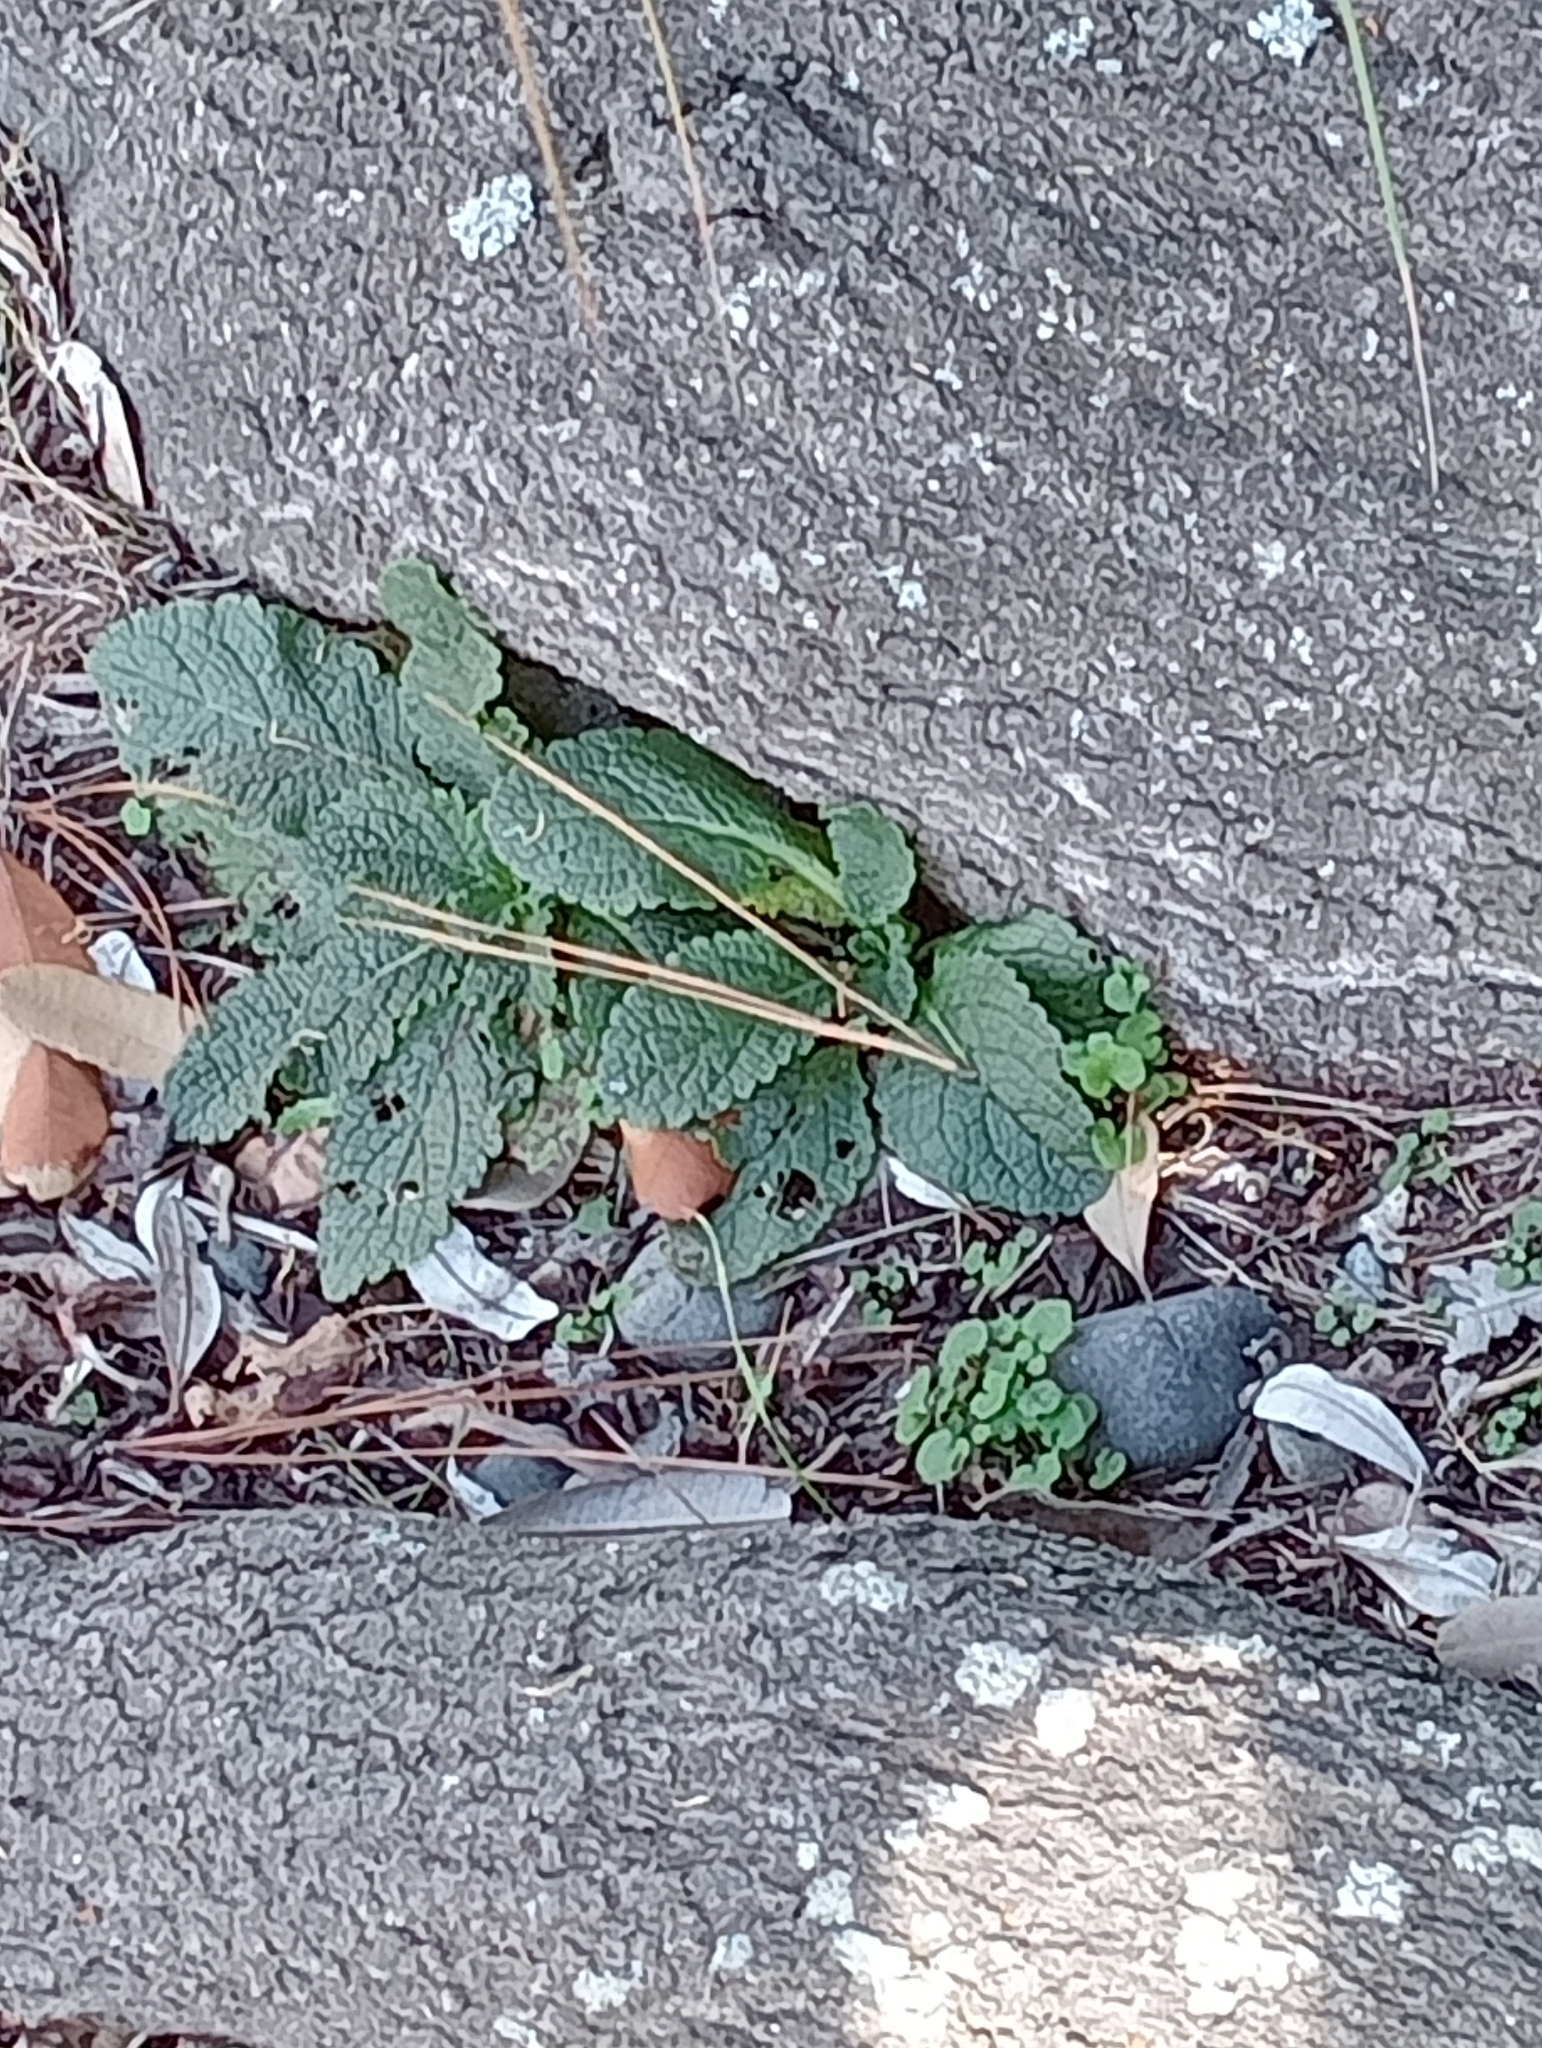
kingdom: Plantae
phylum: Tracheophyta
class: Magnoliopsida
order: Lamiales
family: Plantaginaceae
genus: Digitalis
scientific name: Digitalis purpurea
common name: Foxglove
